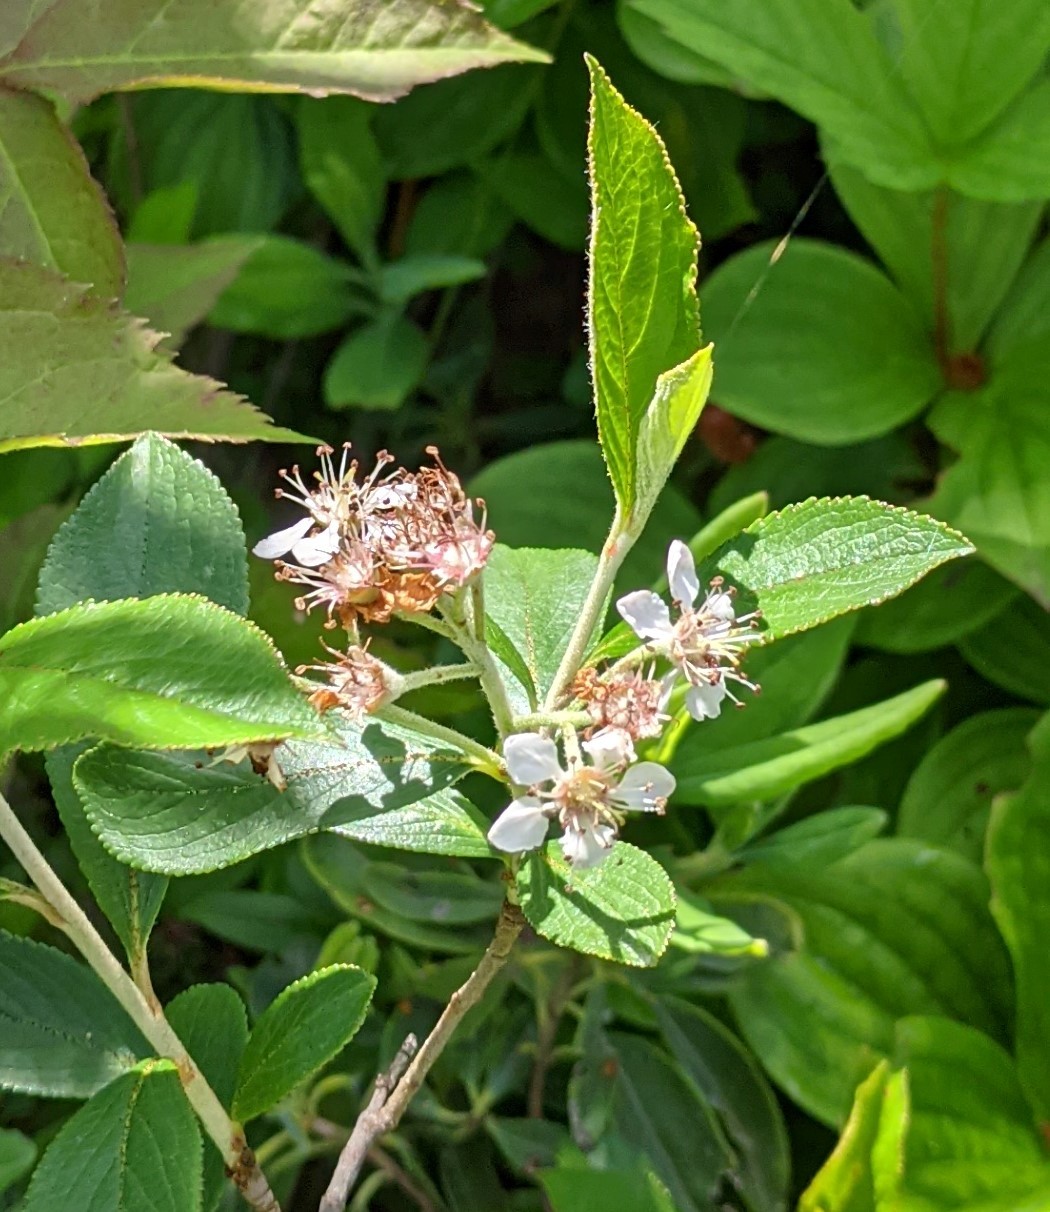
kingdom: Plantae
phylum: Tracheophyta
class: Magnoliopsida
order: Rosales
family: Rosaceae
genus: Aronia
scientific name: Aronia prunifolia
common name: Purple chokeberry
